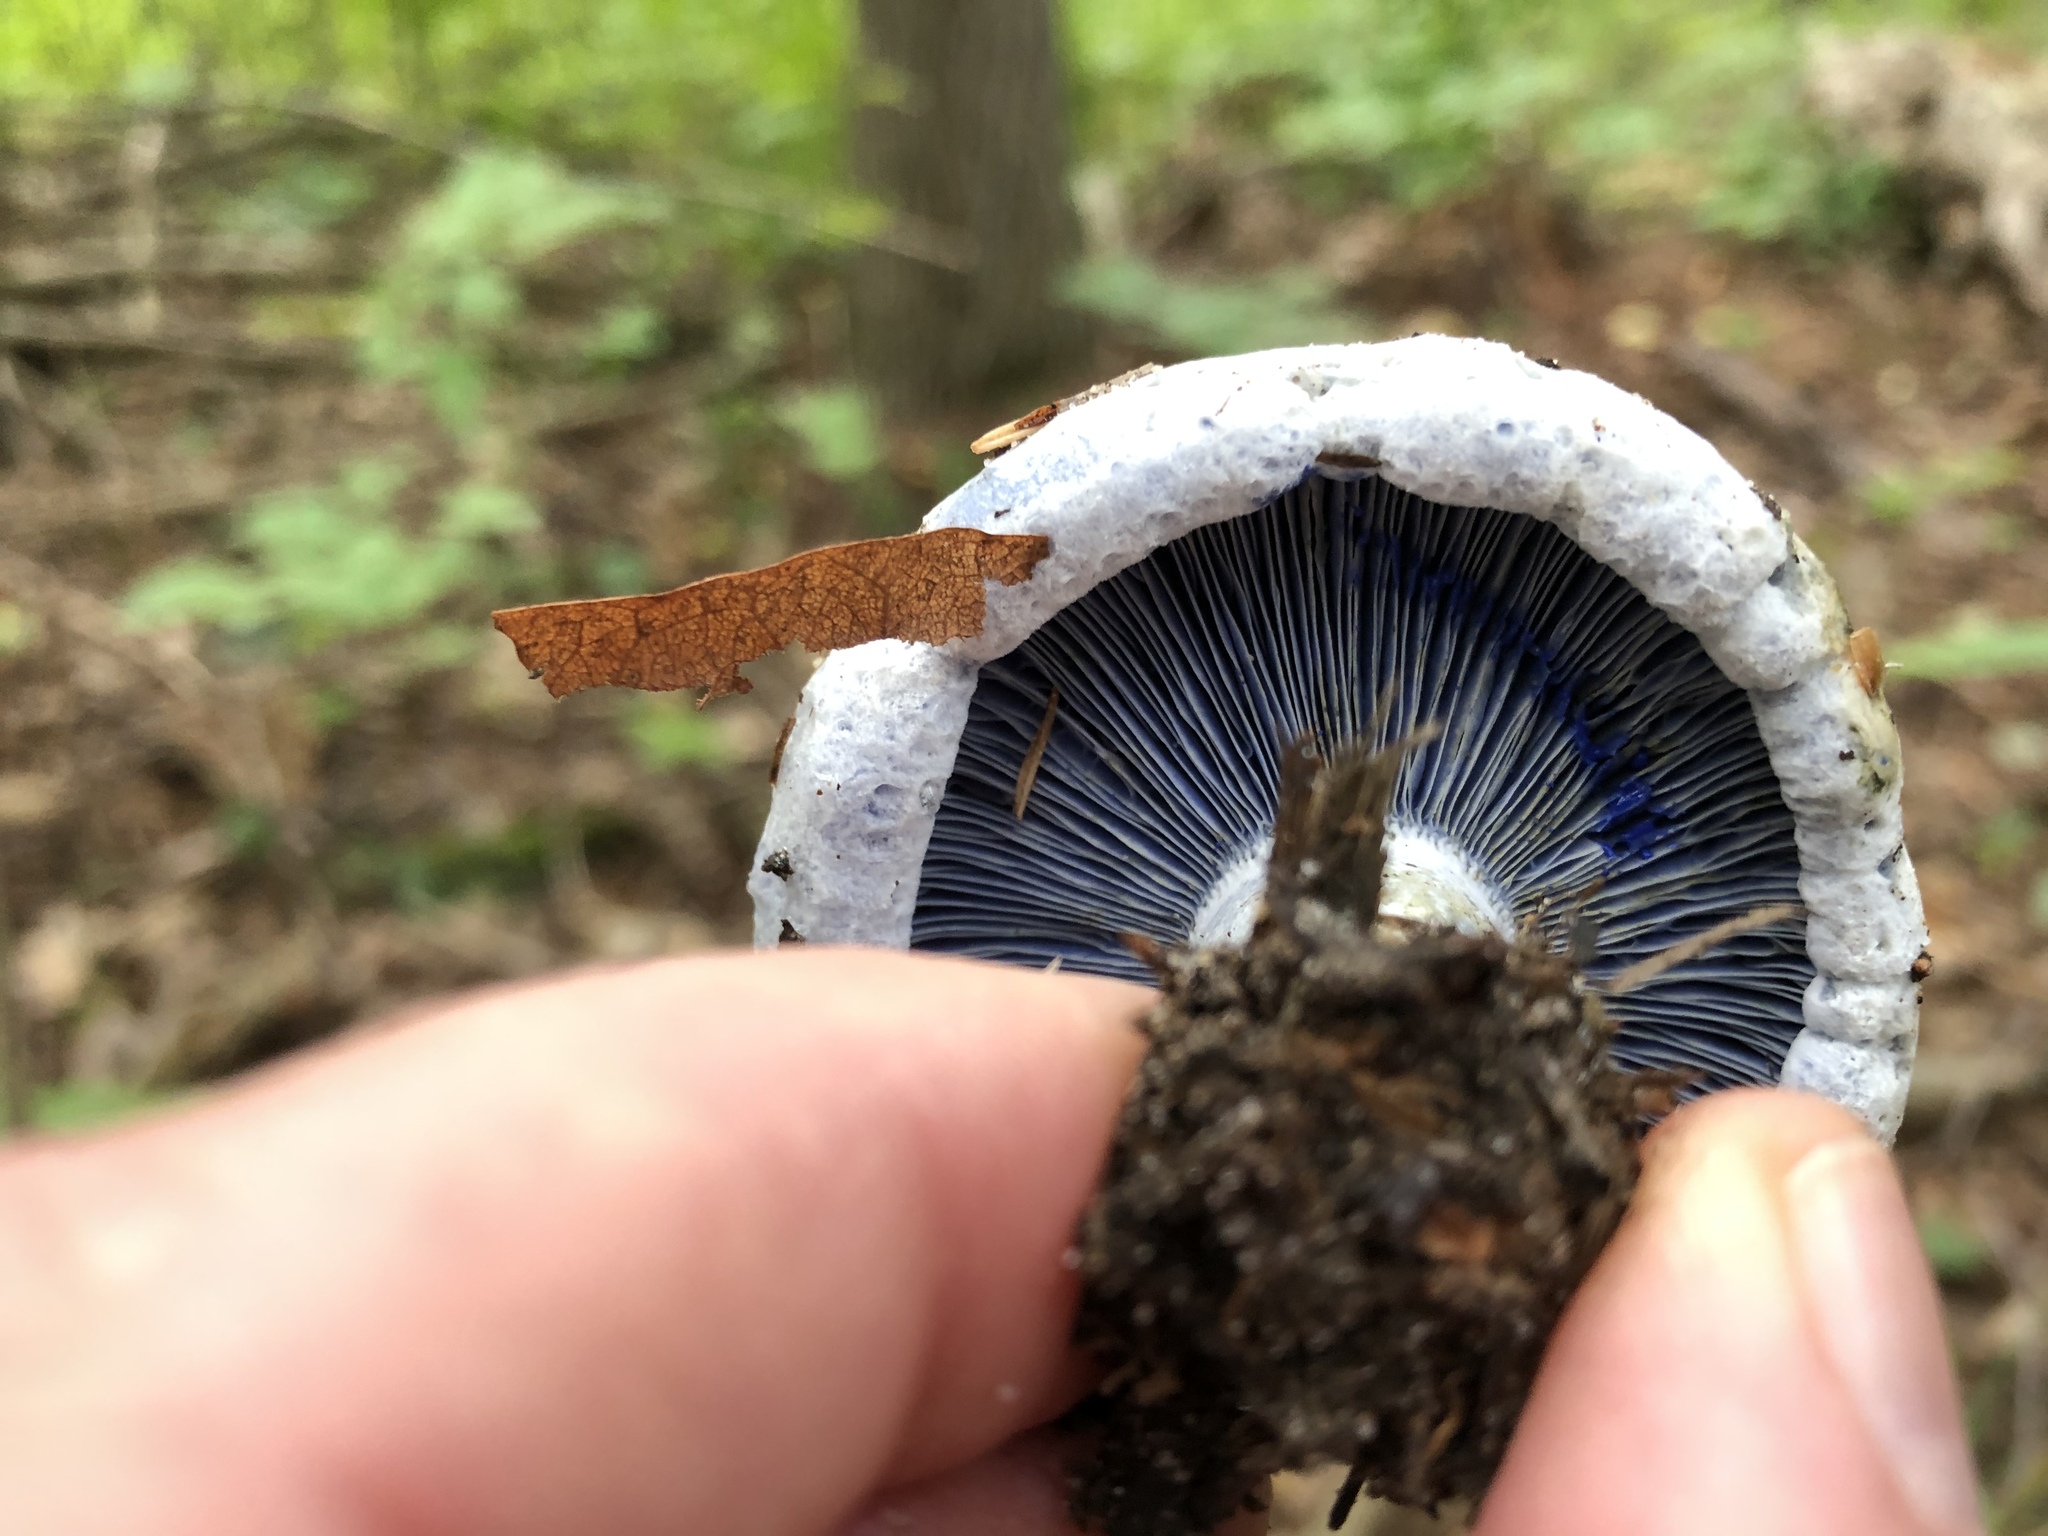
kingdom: Fungi
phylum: Basidiomycota
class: Agaricomycetes
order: Russulales
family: Russulaceae
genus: Lactarius
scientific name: Lactarius indigo
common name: Indigo milk cap
